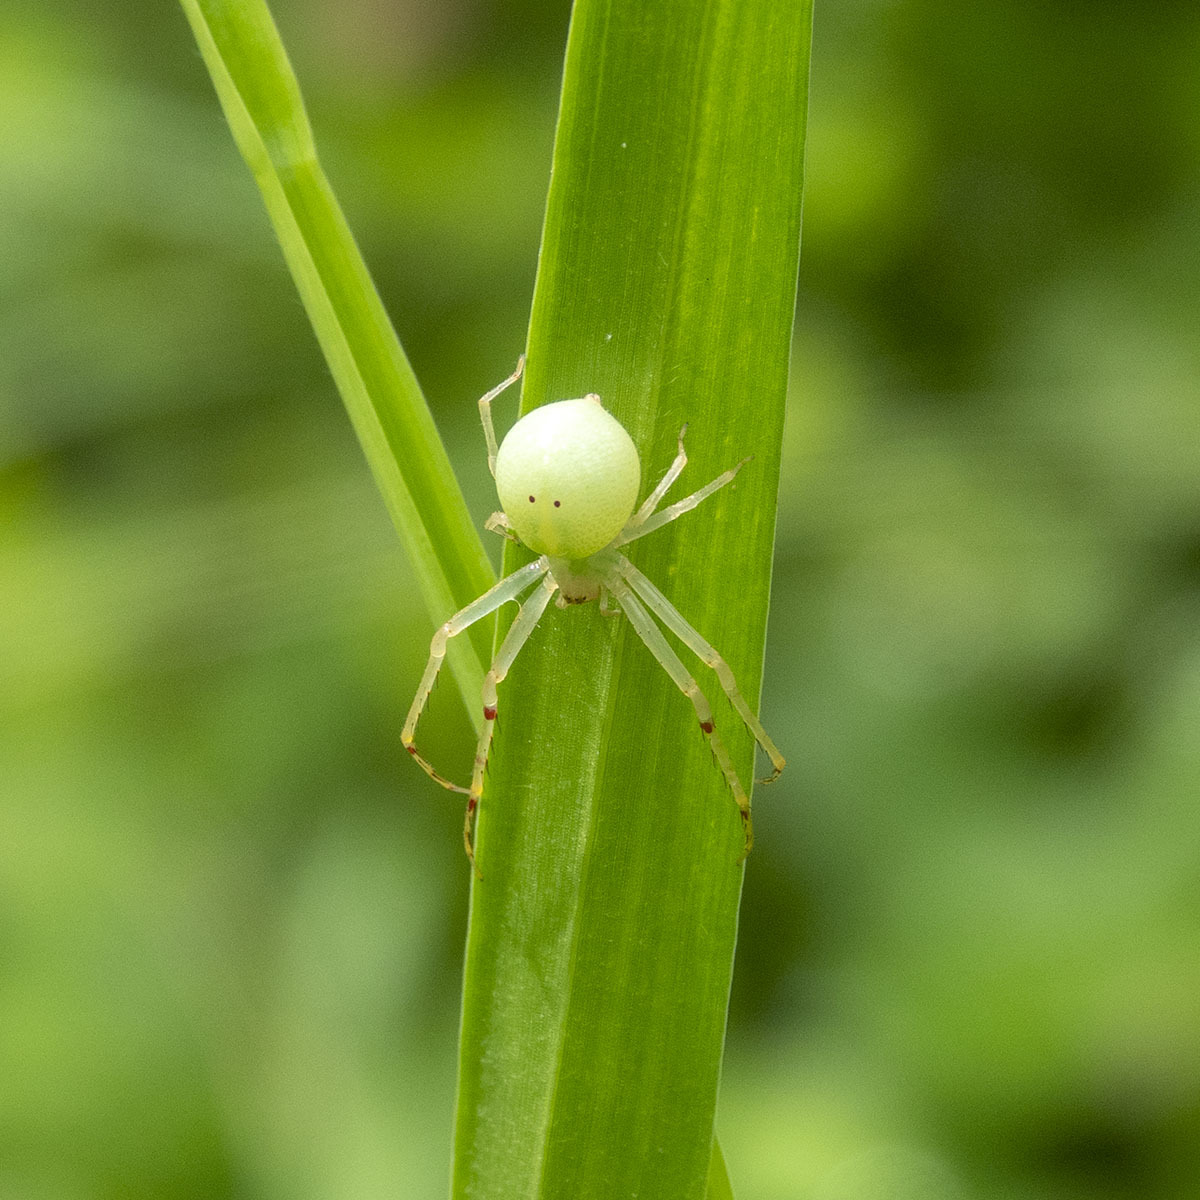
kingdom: Animalia
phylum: Arthropoda
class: Arachnida
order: Araneae
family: Thomisidae
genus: Epidius
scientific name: Epidius armatus
